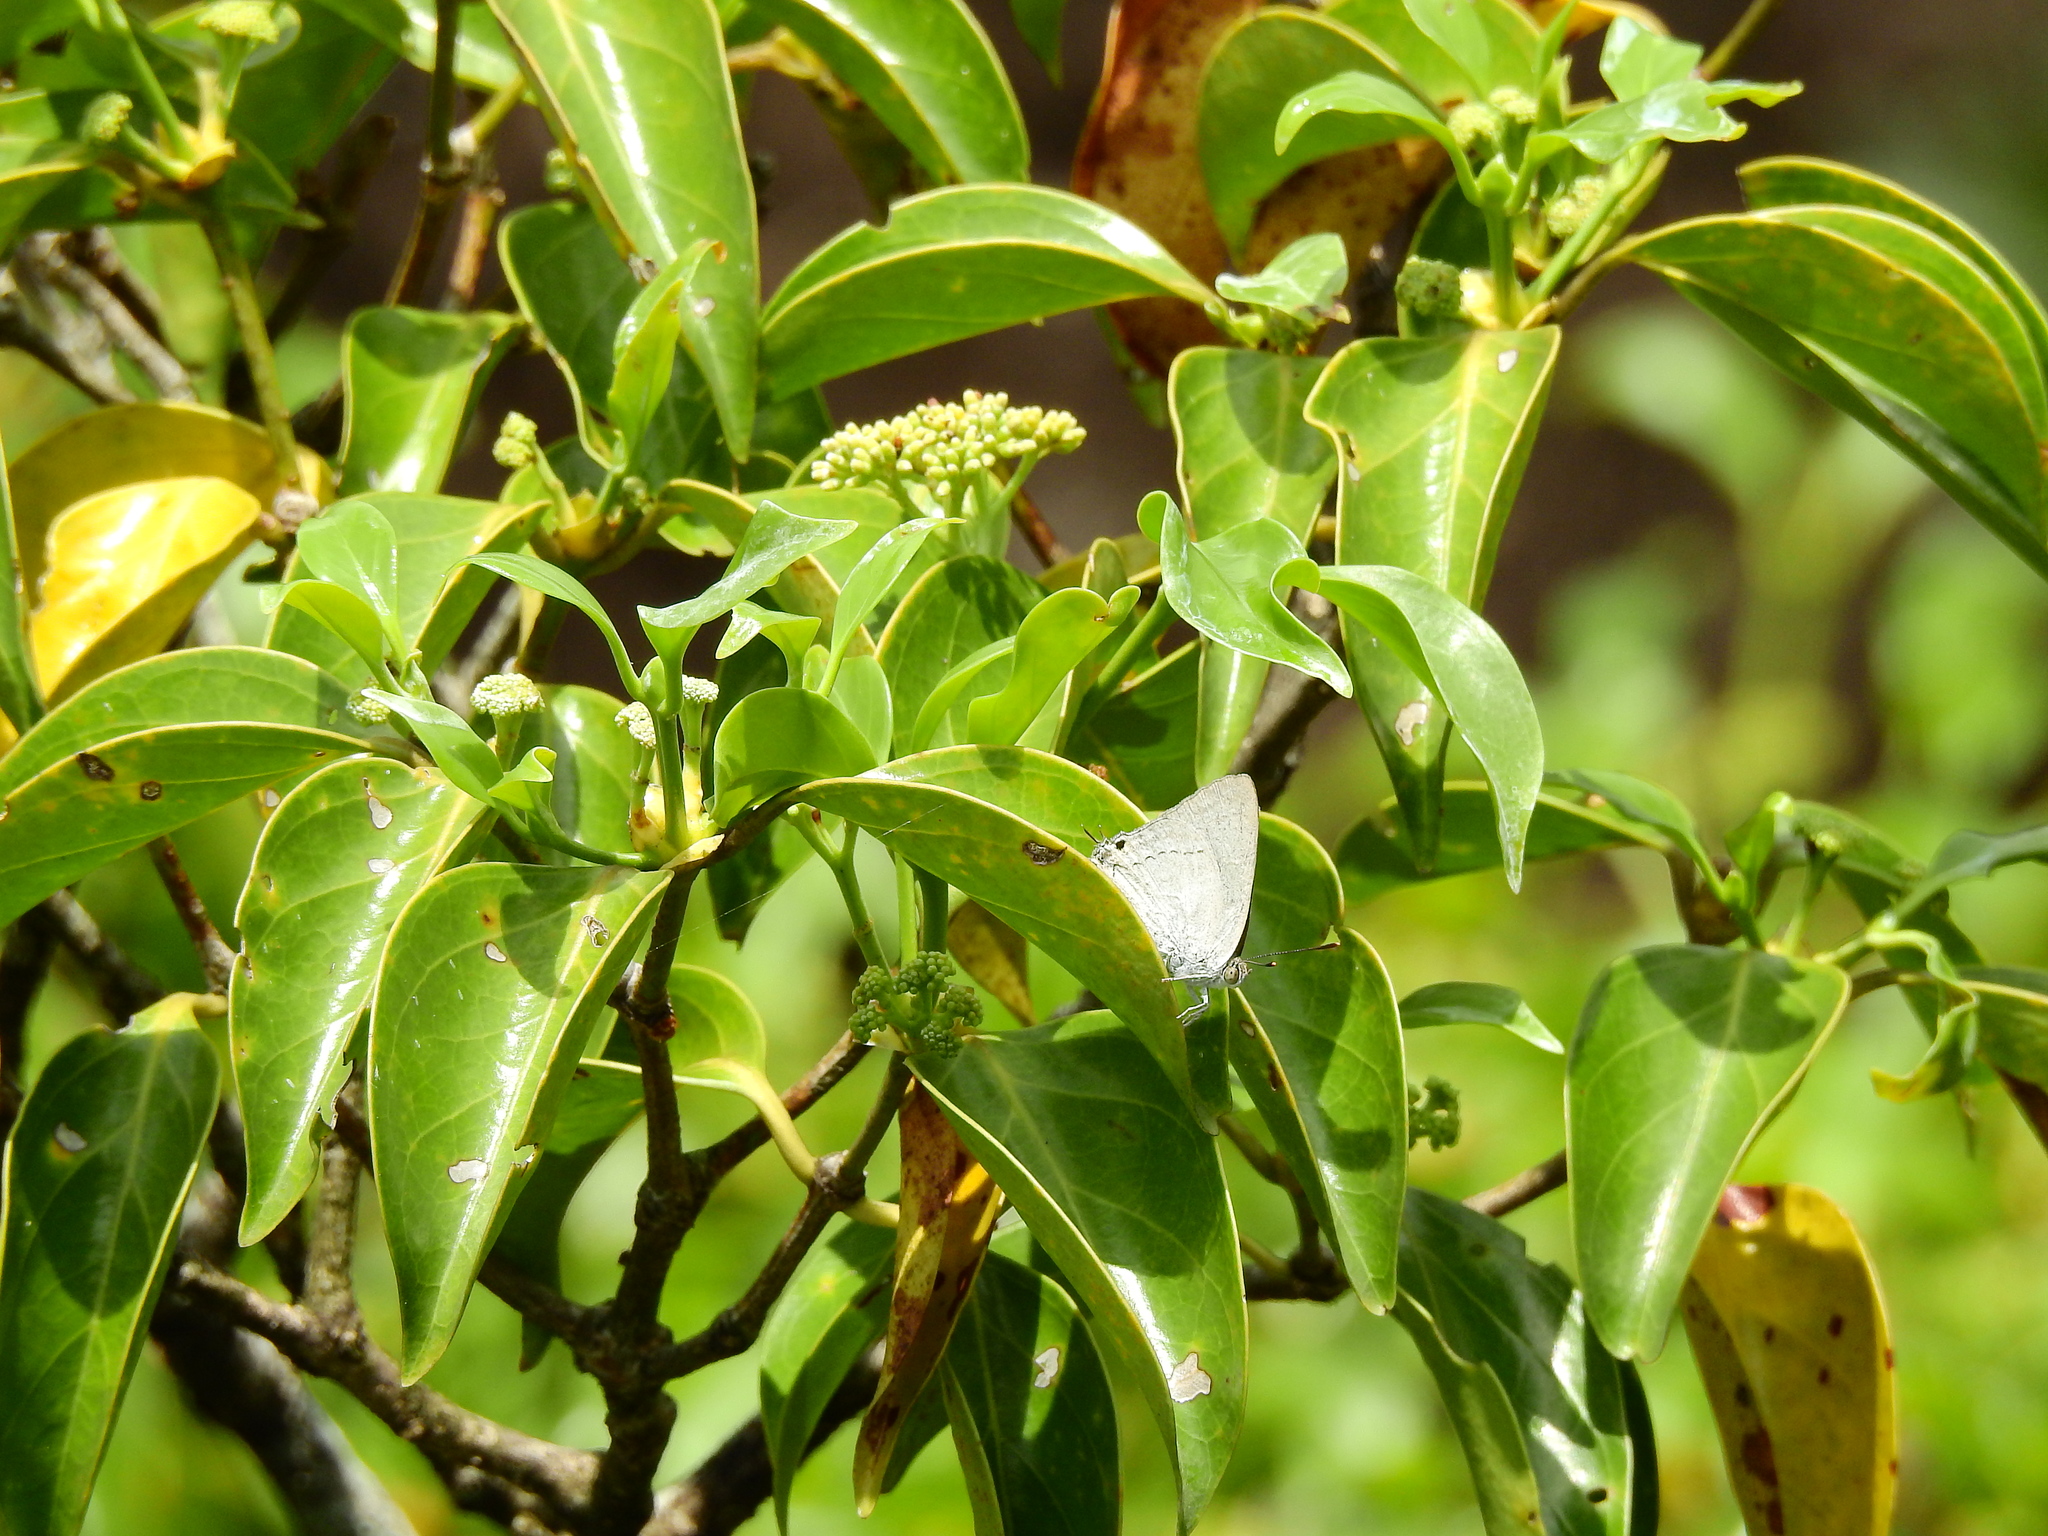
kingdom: Animalia
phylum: Arthropoda
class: Insecta
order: Lepidoptera
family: Lycaenidae
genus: Tajuria
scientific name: Tajuria jehana
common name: Plains blue royal
